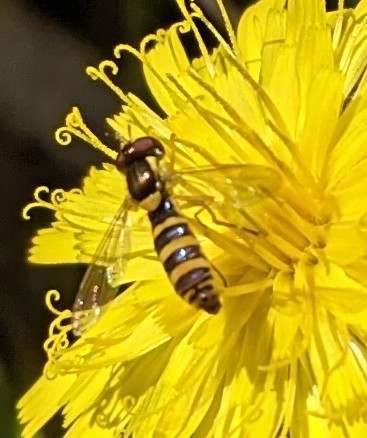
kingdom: Animalia
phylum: Arthropoda
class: Insecta
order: Diptera
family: Syrphidae
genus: Sphaerophoria
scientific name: Sphaerophoria
